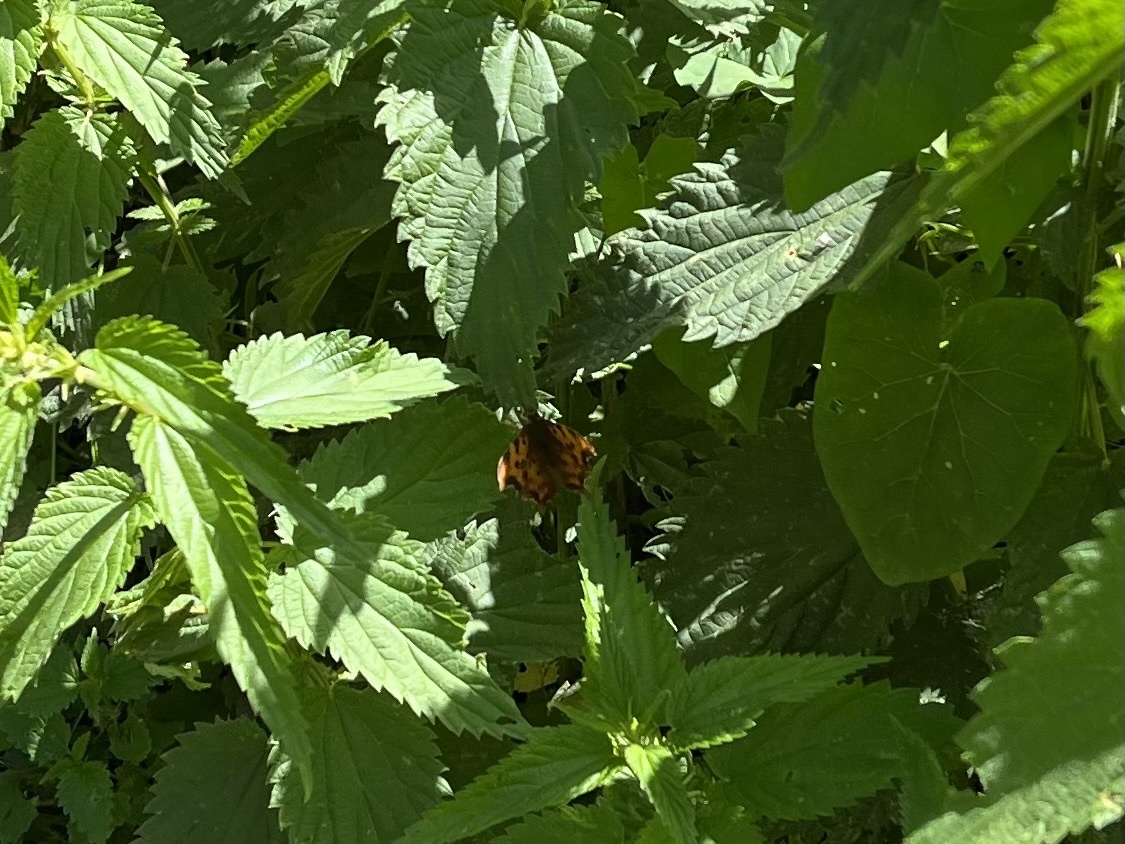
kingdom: Animalia
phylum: Arthropoda
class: Insecta
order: Lepidoptera
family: Nymphalidae
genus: Polygonia
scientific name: Polygonia c-album
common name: Comma
